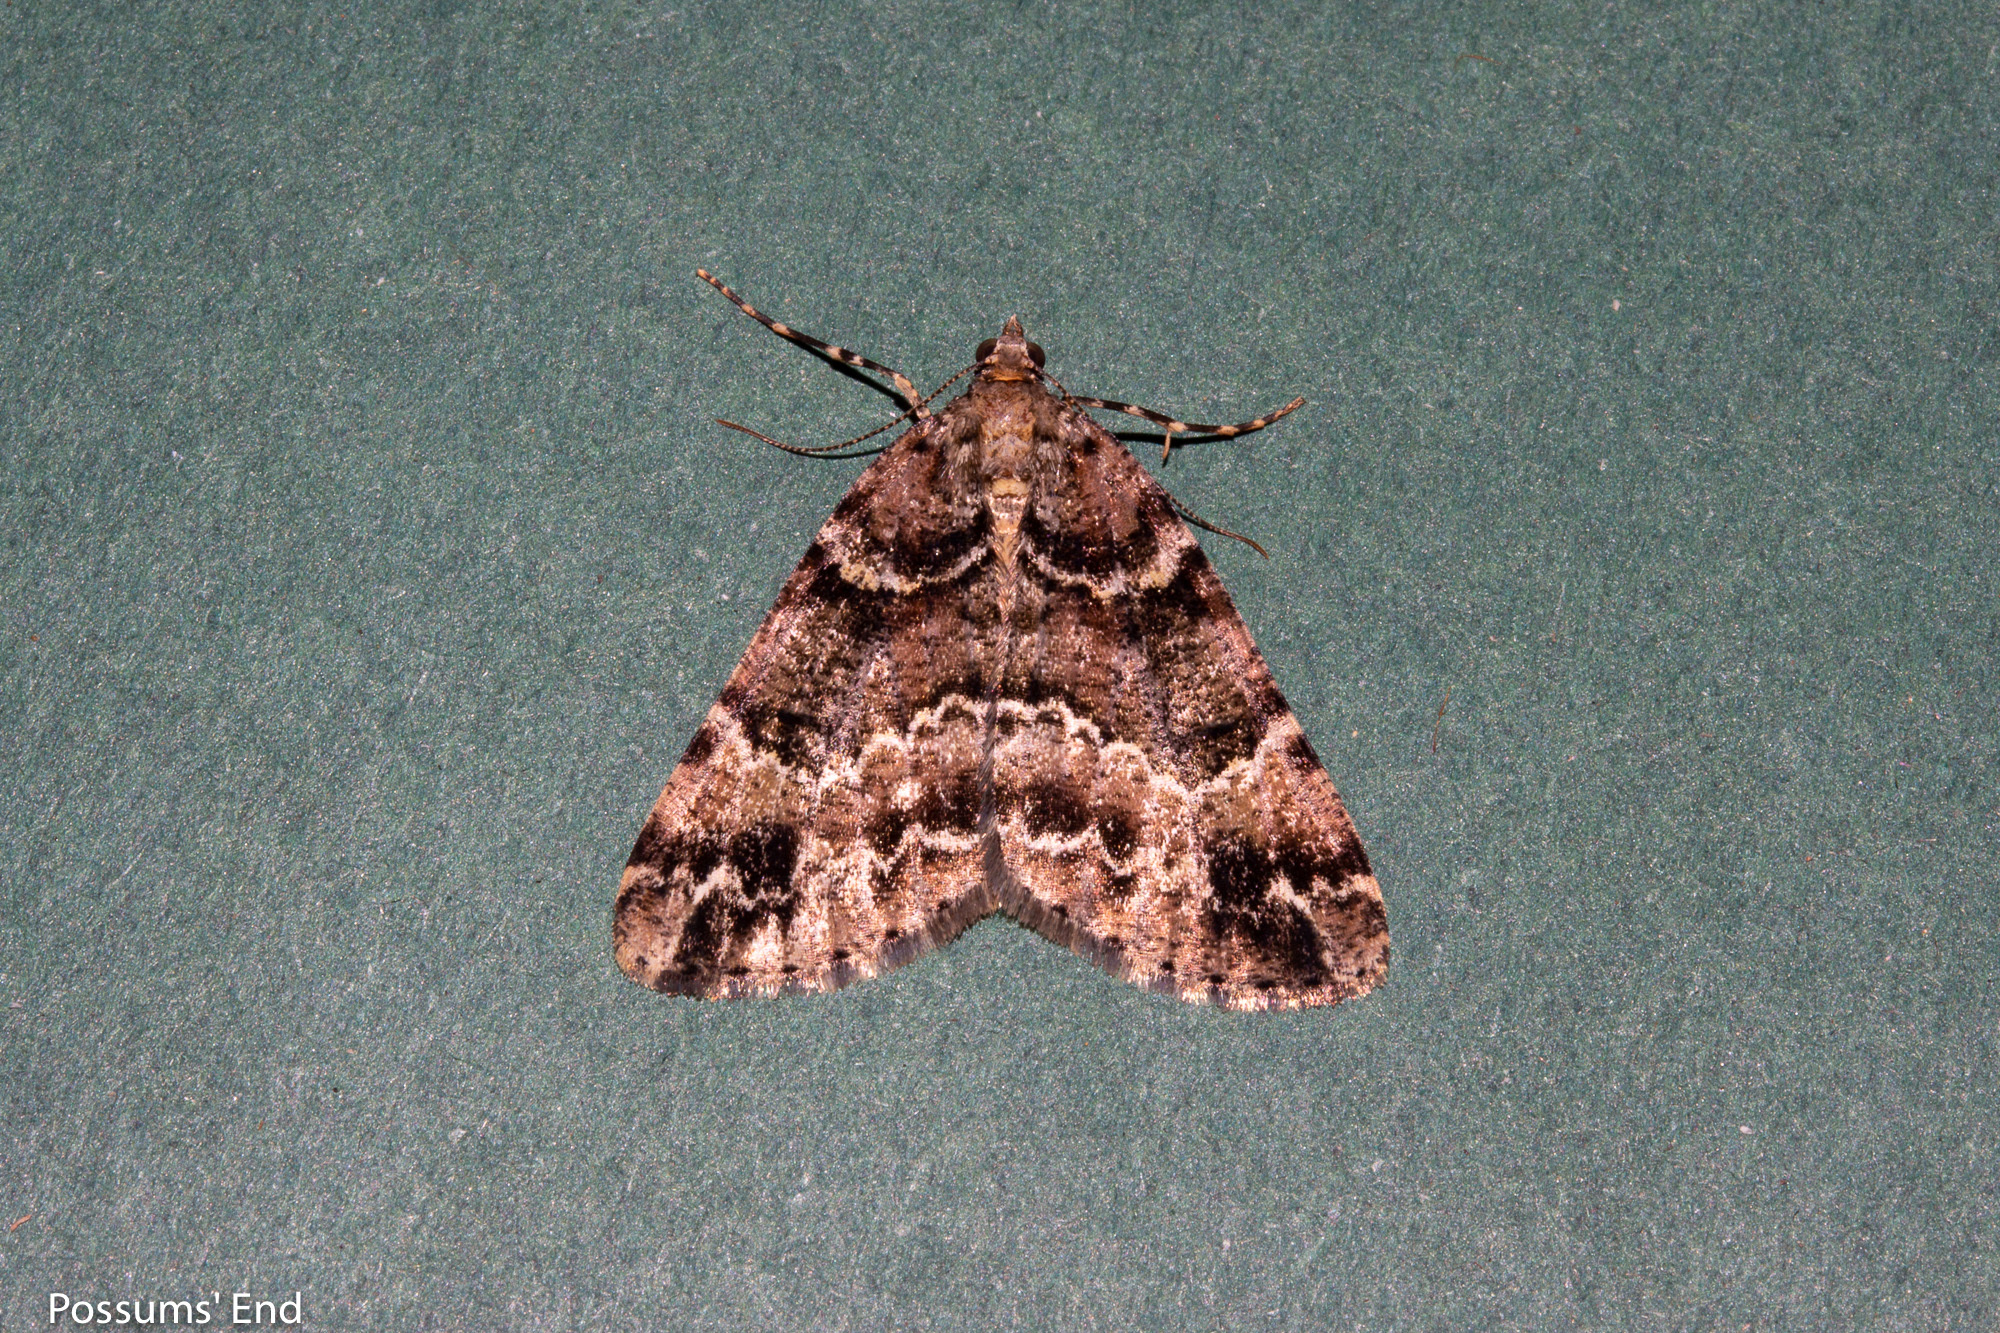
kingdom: Animalia
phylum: Arthropoda
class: Insecta
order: Lepidoptera
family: Geometridae
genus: Pseudocoremia
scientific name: Pseudocoremia productata
